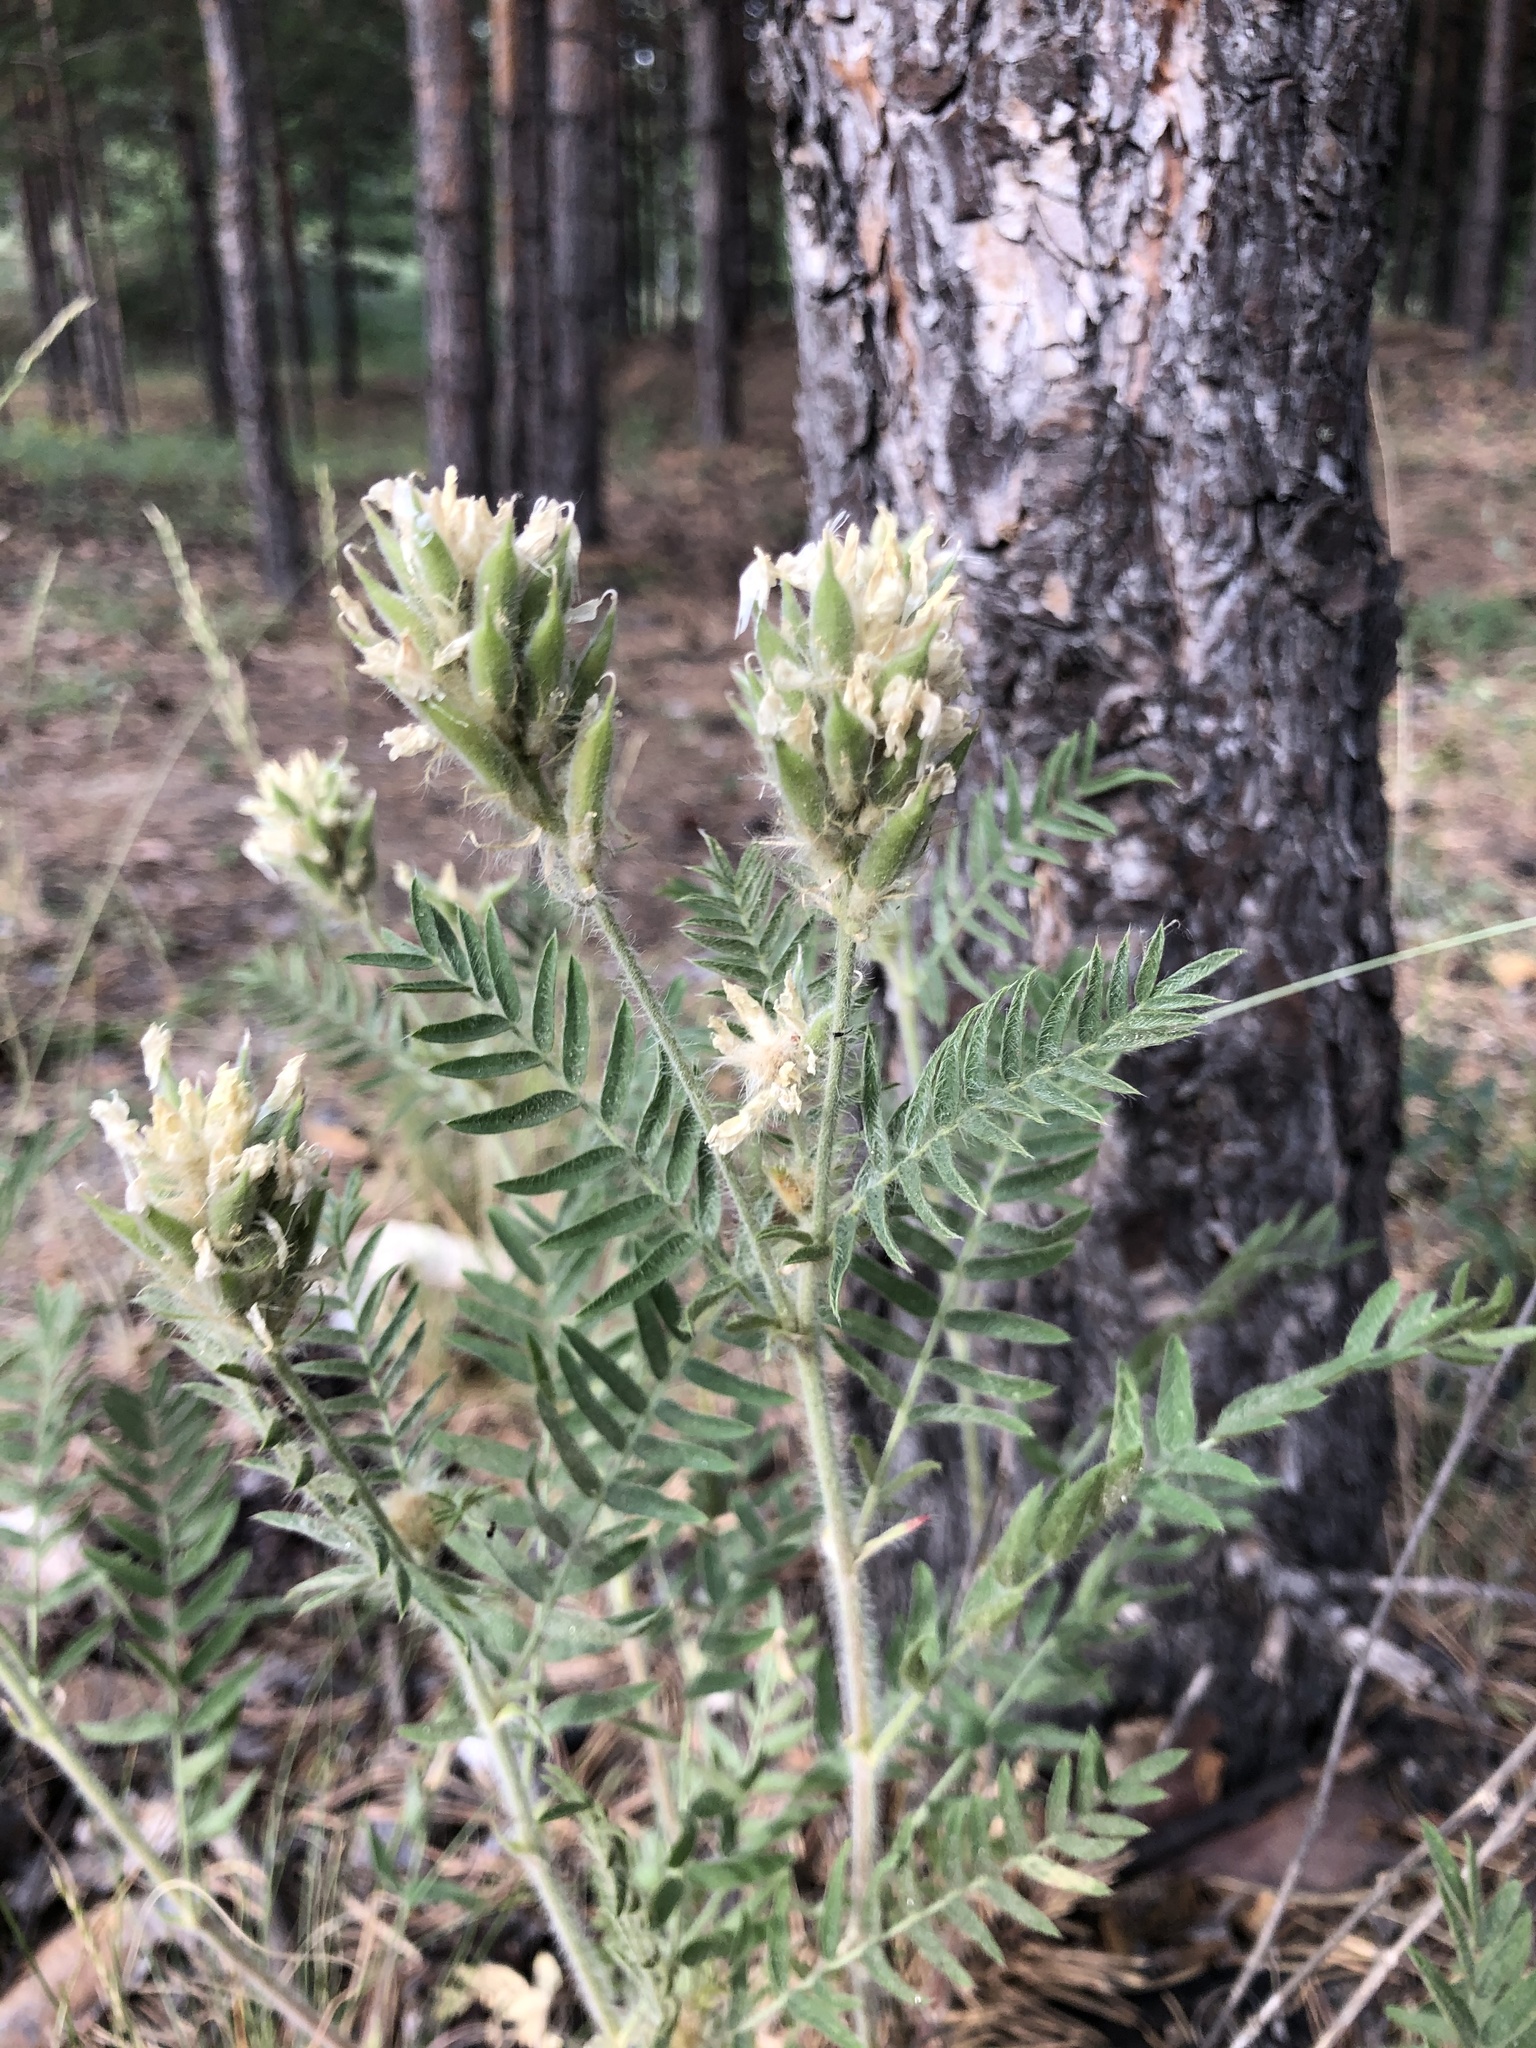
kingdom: Plantae
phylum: Tracheophyta
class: Magnoliopsida
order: Fabales
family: Fabaceae
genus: Oxytropis
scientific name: Oxytropis pilosa
